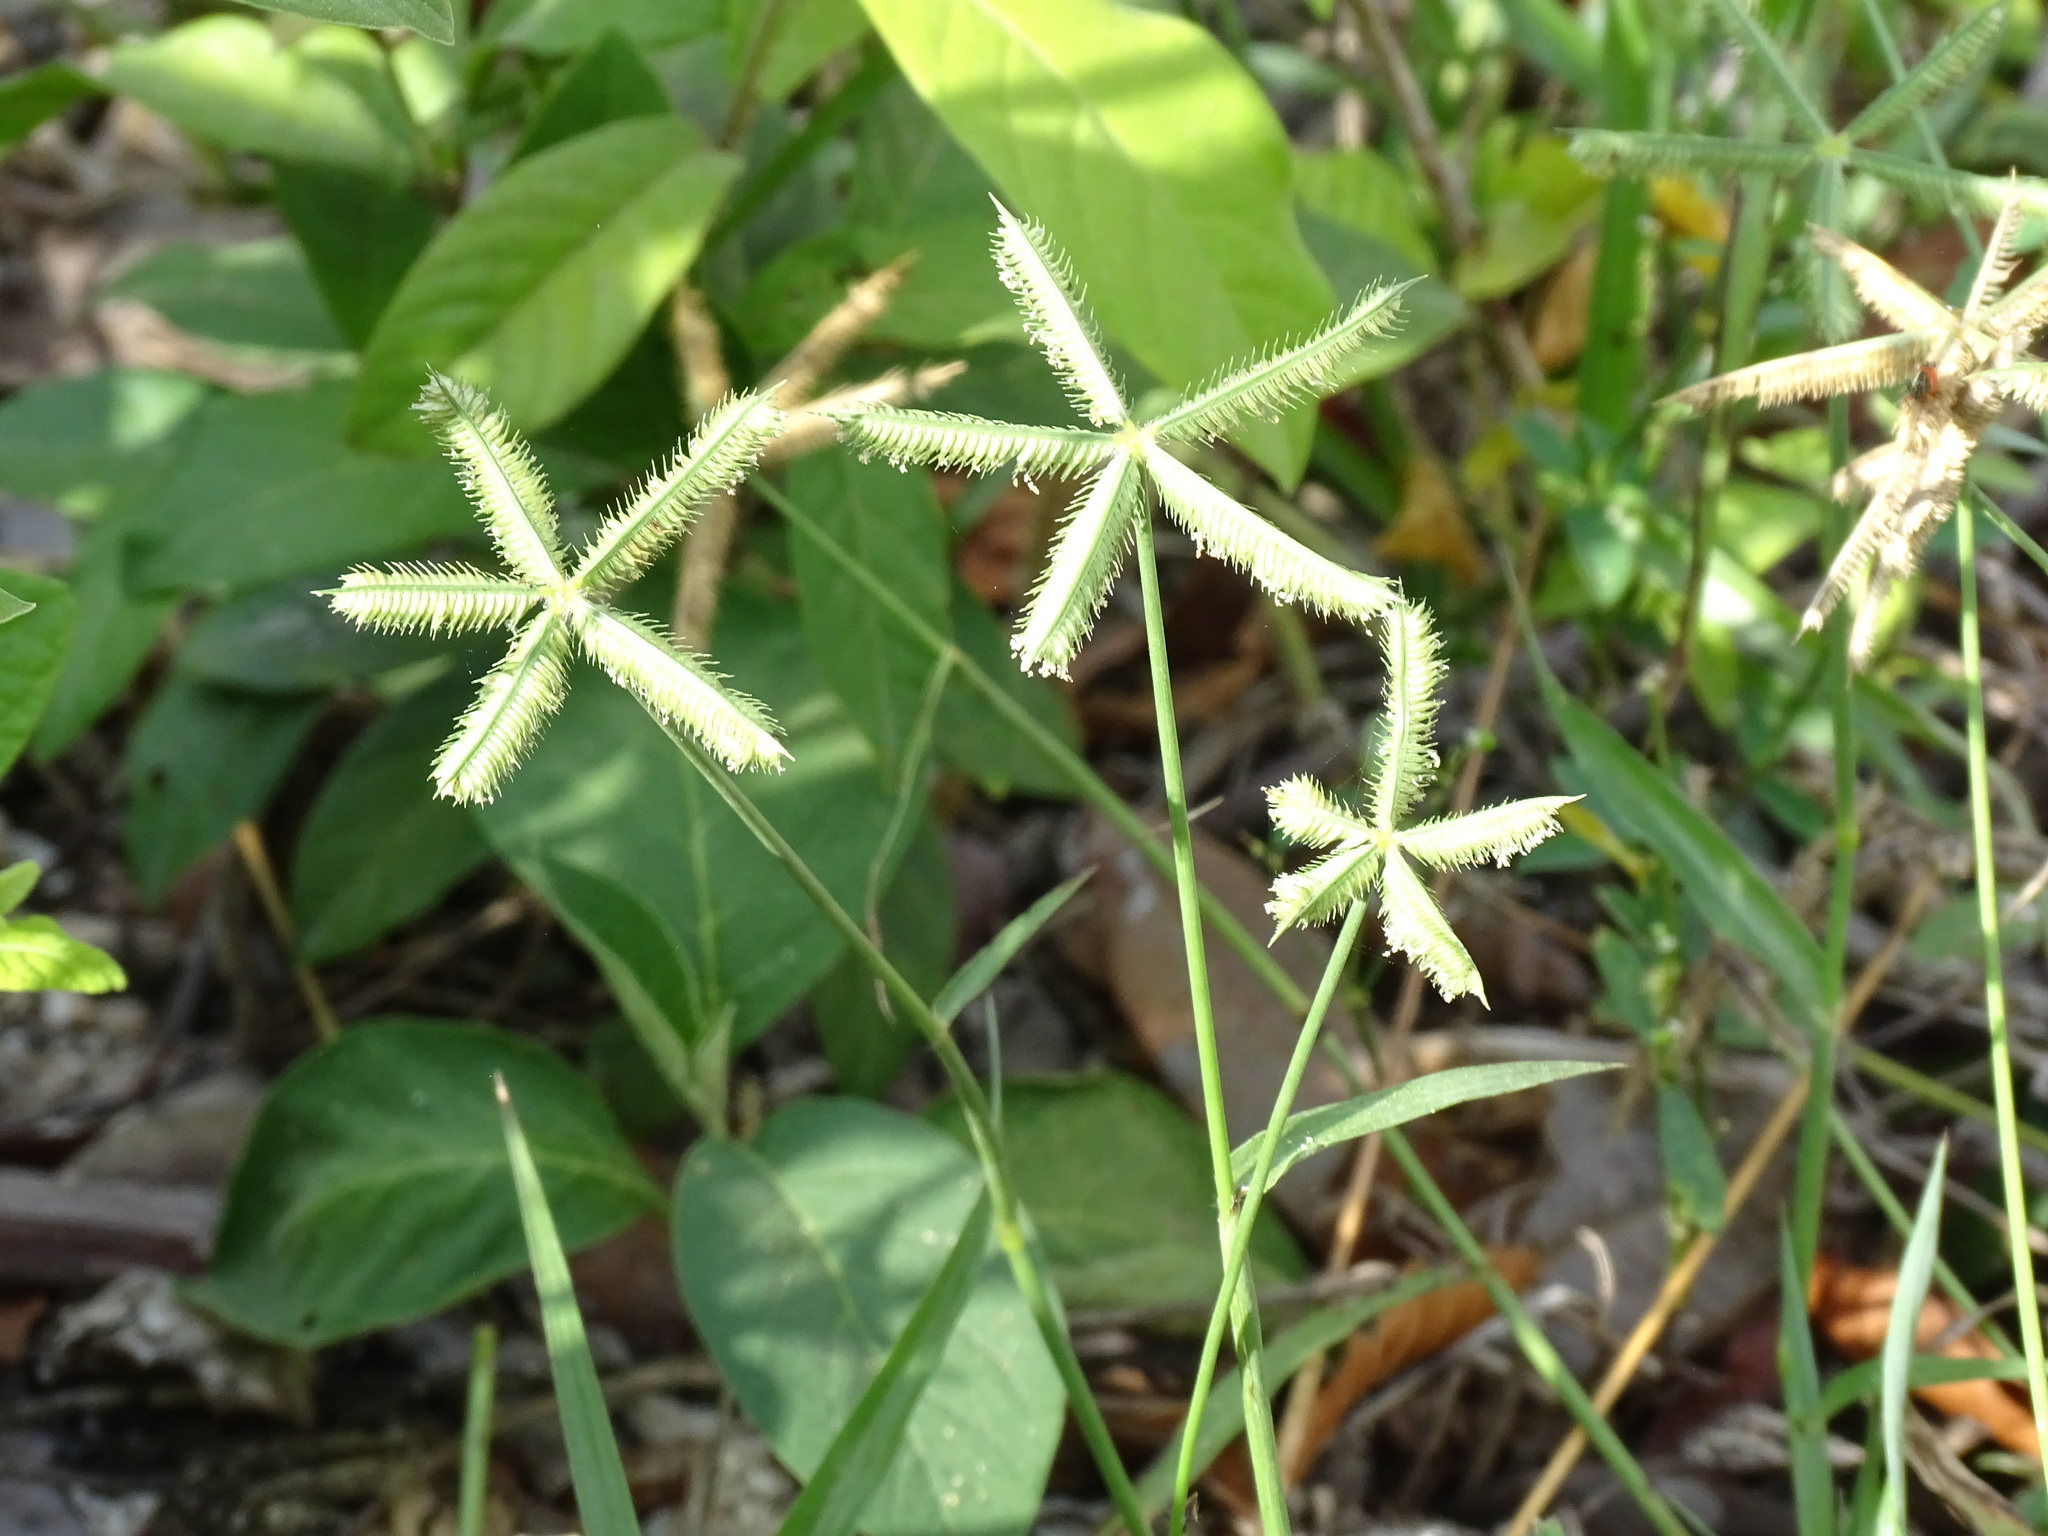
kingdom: Plantae
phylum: Tracheophyta
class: Liliopsida
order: Poales
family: Poaceae
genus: Dactyloctenium
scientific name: Dactyloctenium aegyptium
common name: Egyptian grass
